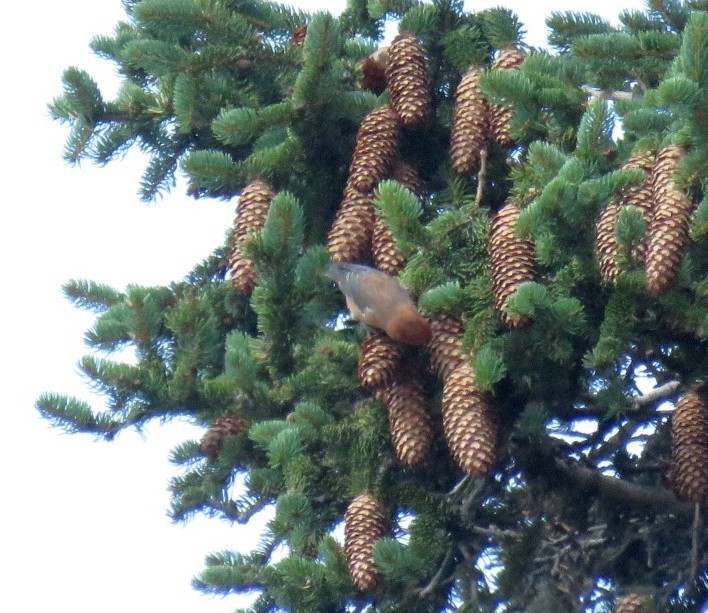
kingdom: Animalia
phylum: Chordata
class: Aves
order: Passeriformes
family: Fringillidae
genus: Loxia
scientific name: Loxia curvirostra
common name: Red crossbill
